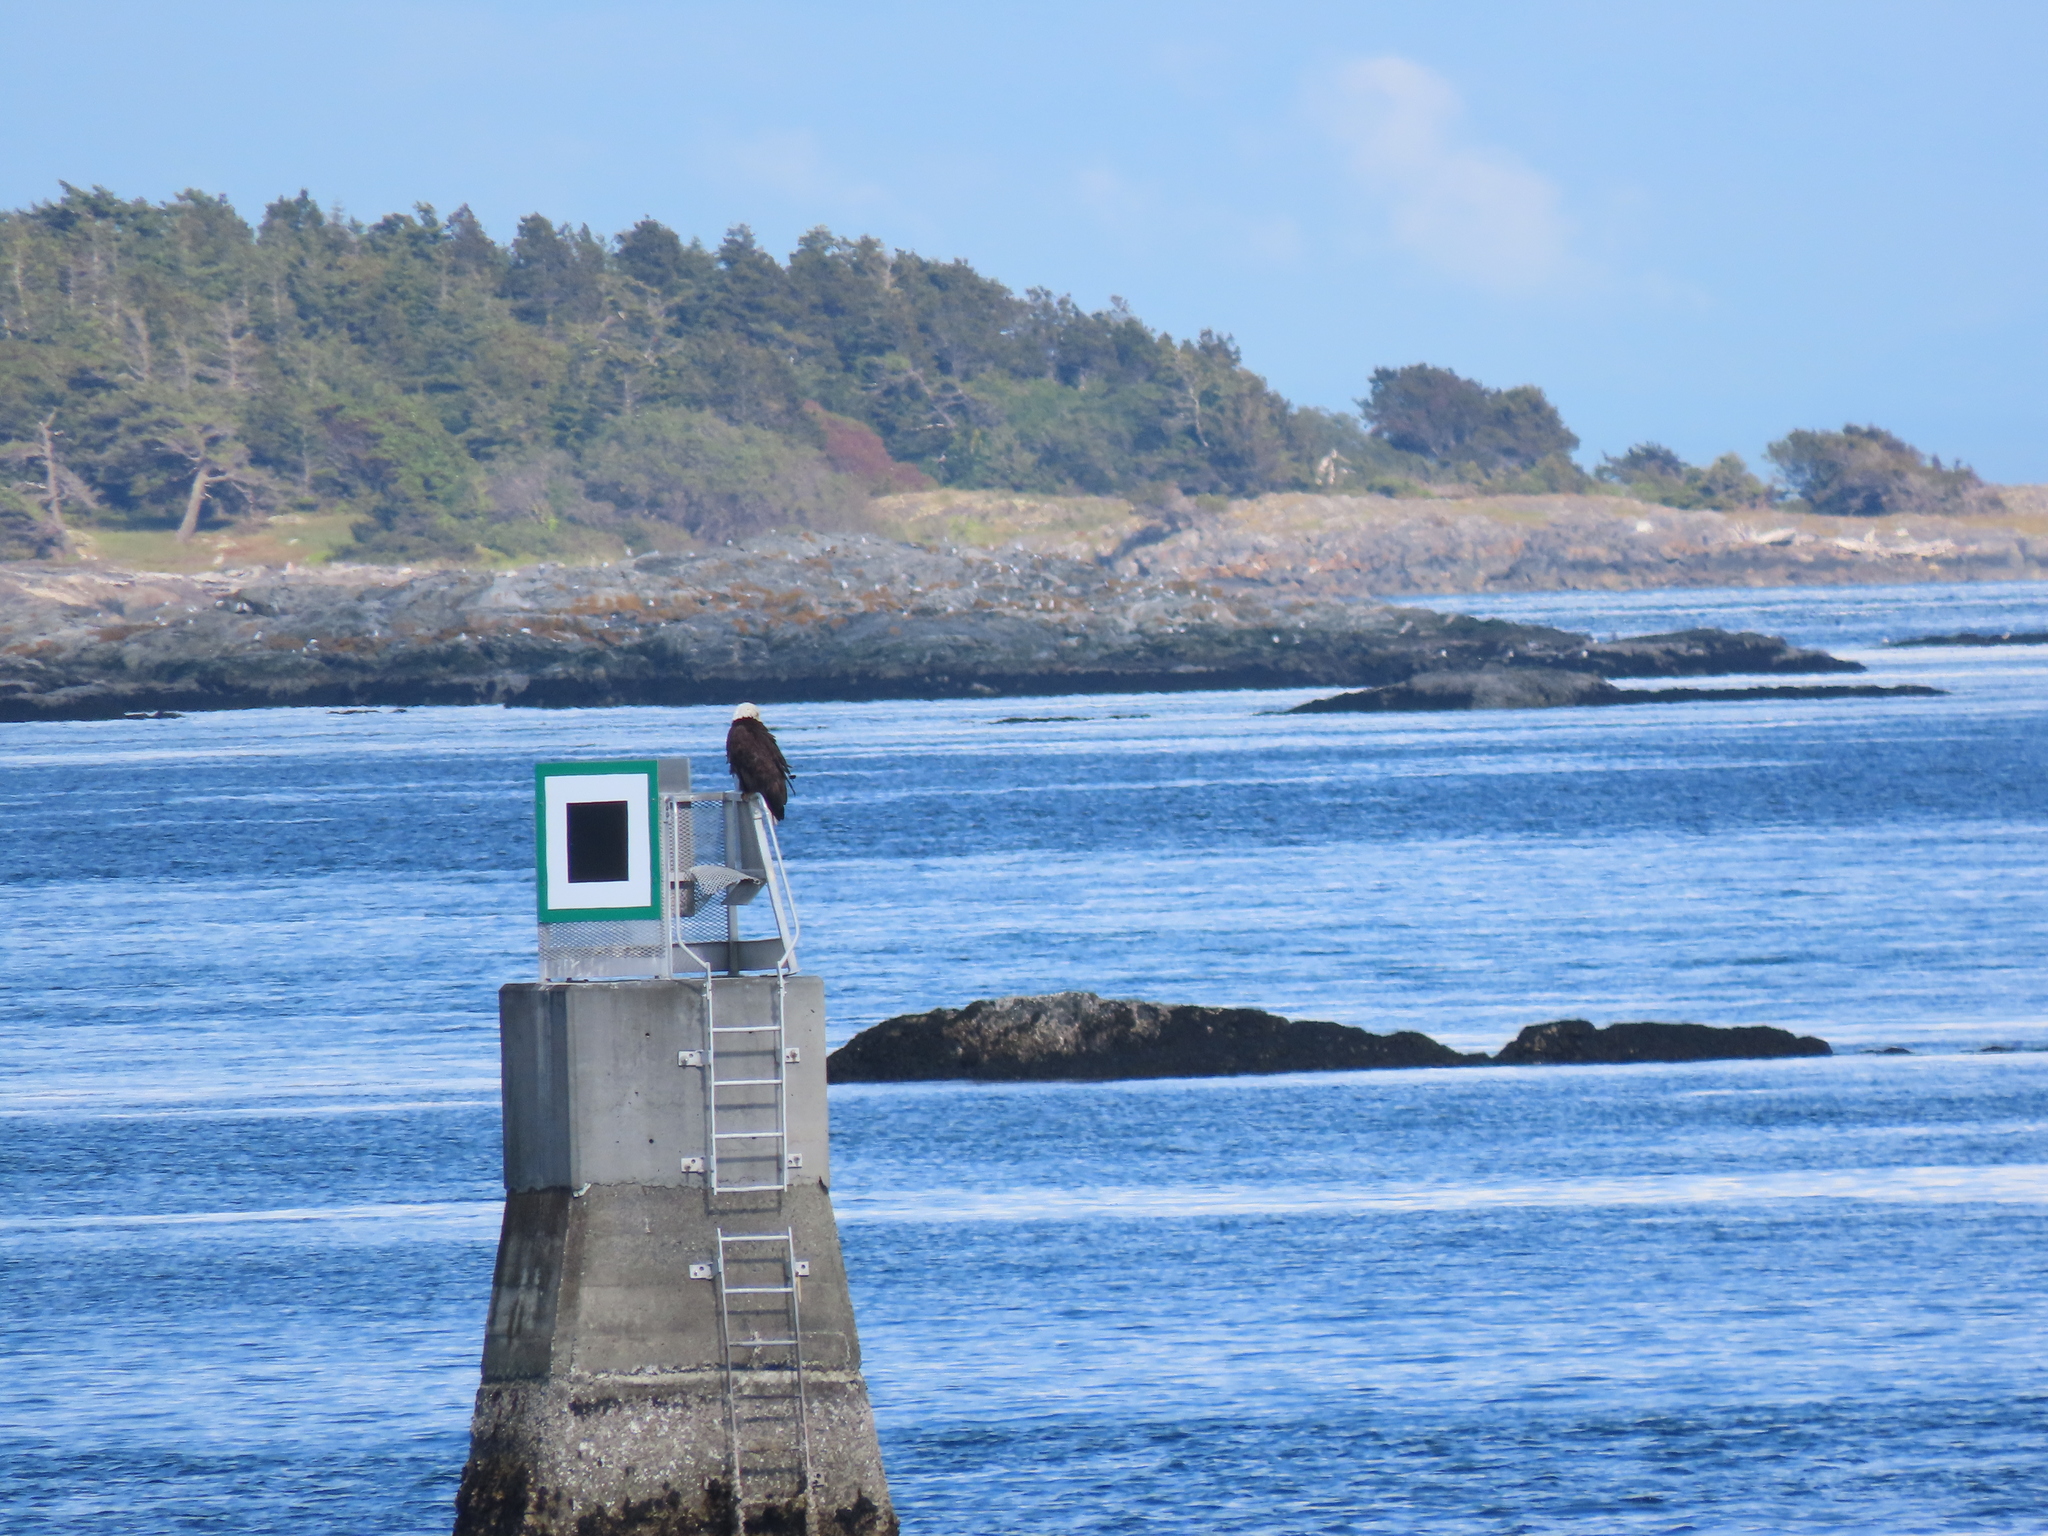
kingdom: Animalia
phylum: Chordata
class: Aves
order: Accipitriformes
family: Accipitridae
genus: Haliaeetus
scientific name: Haliaeetus leucocephalus
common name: Bald eagle
